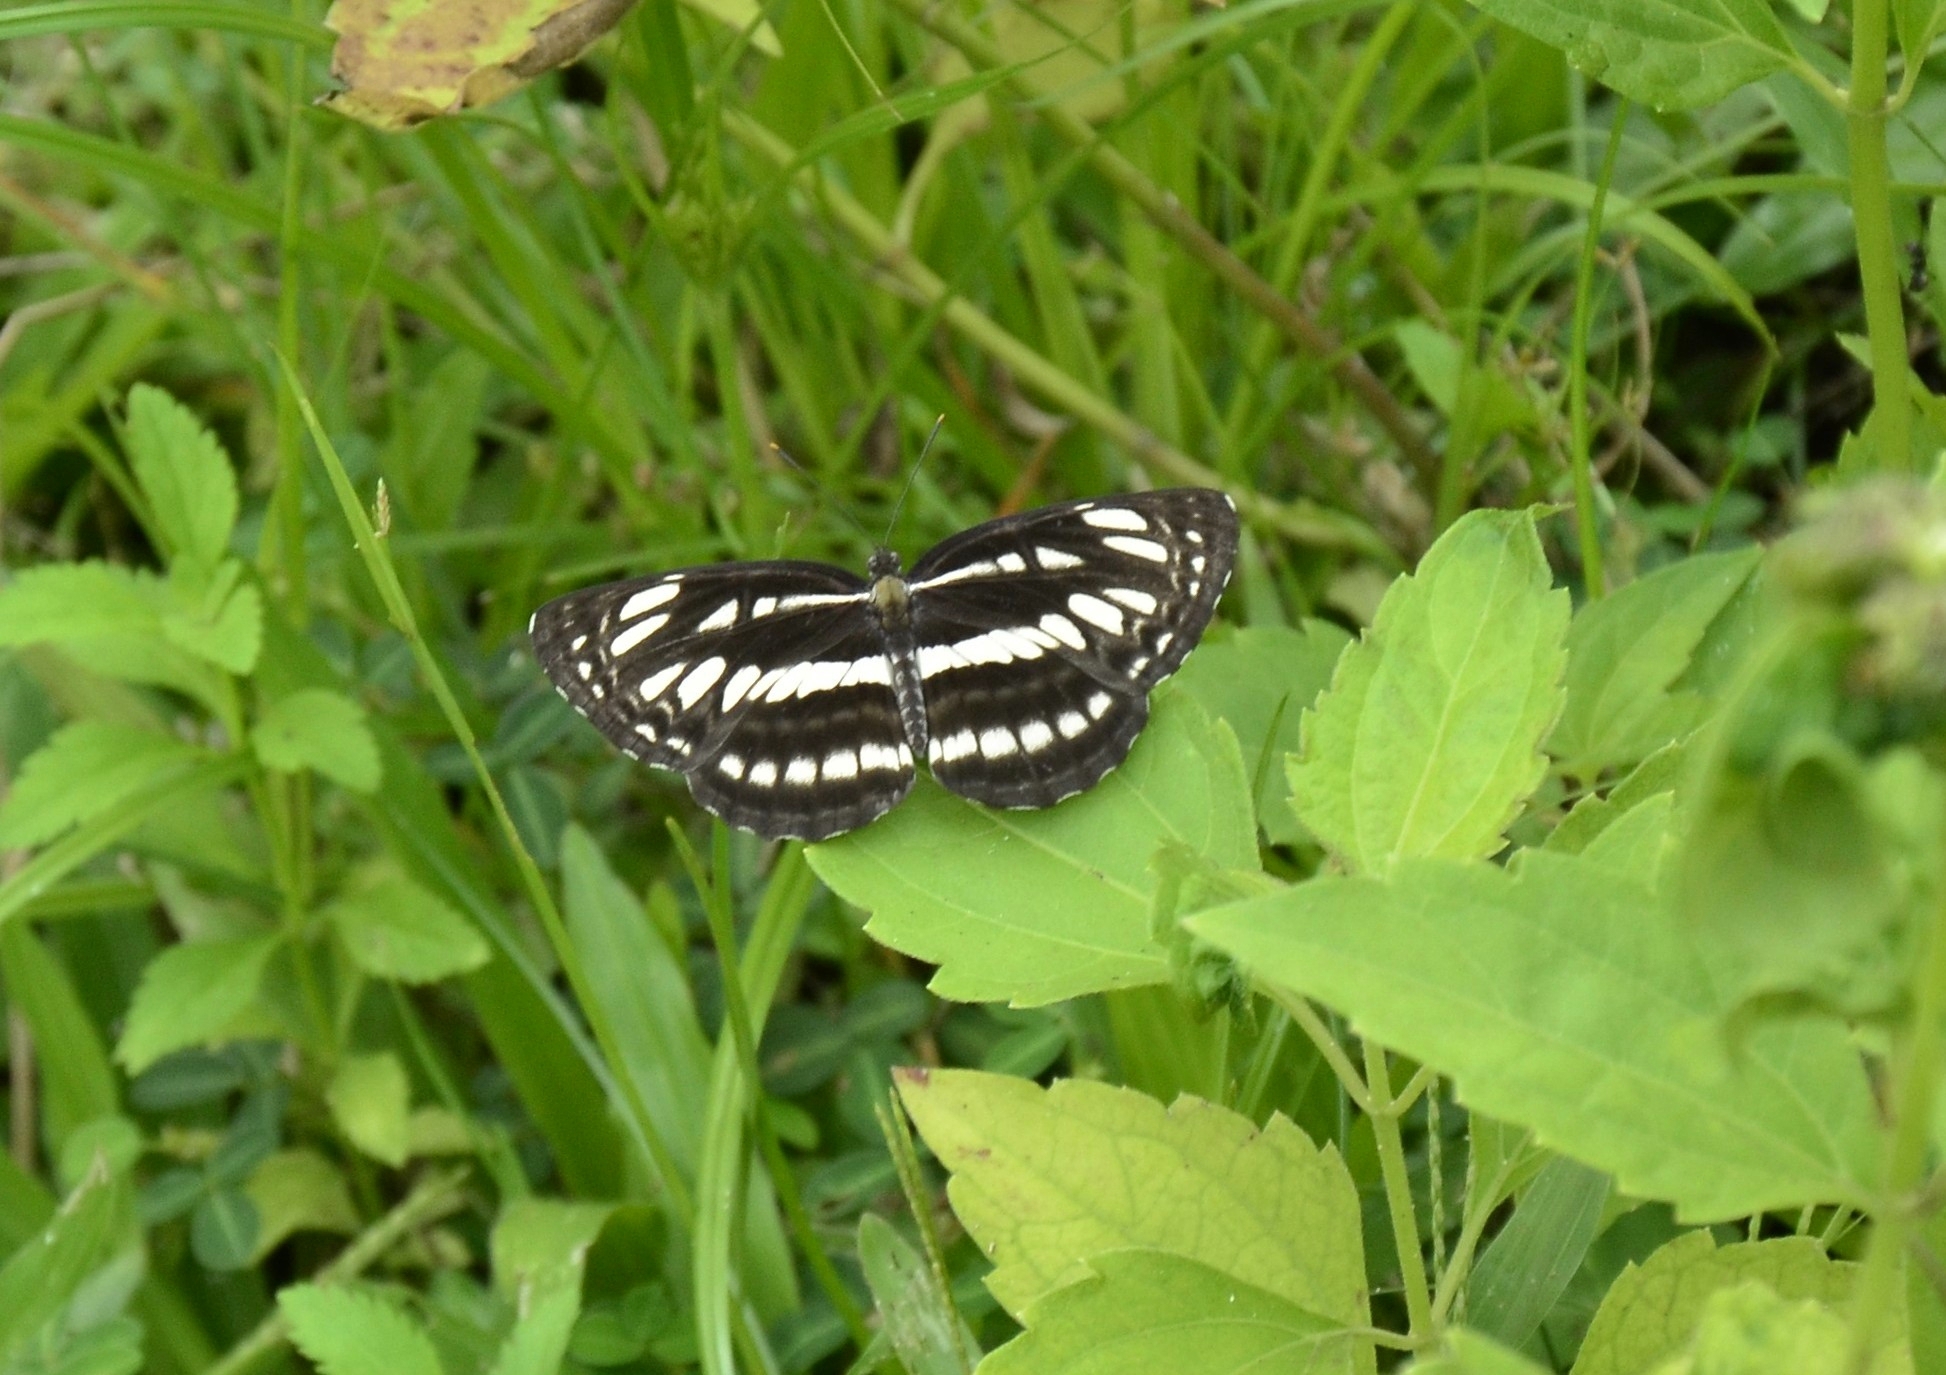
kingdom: Animalia
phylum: Arthropoda
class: Insecta
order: Lepidoptera
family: Nymphalidae
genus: Neptis
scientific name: Neptis hylas
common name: Common sailer
